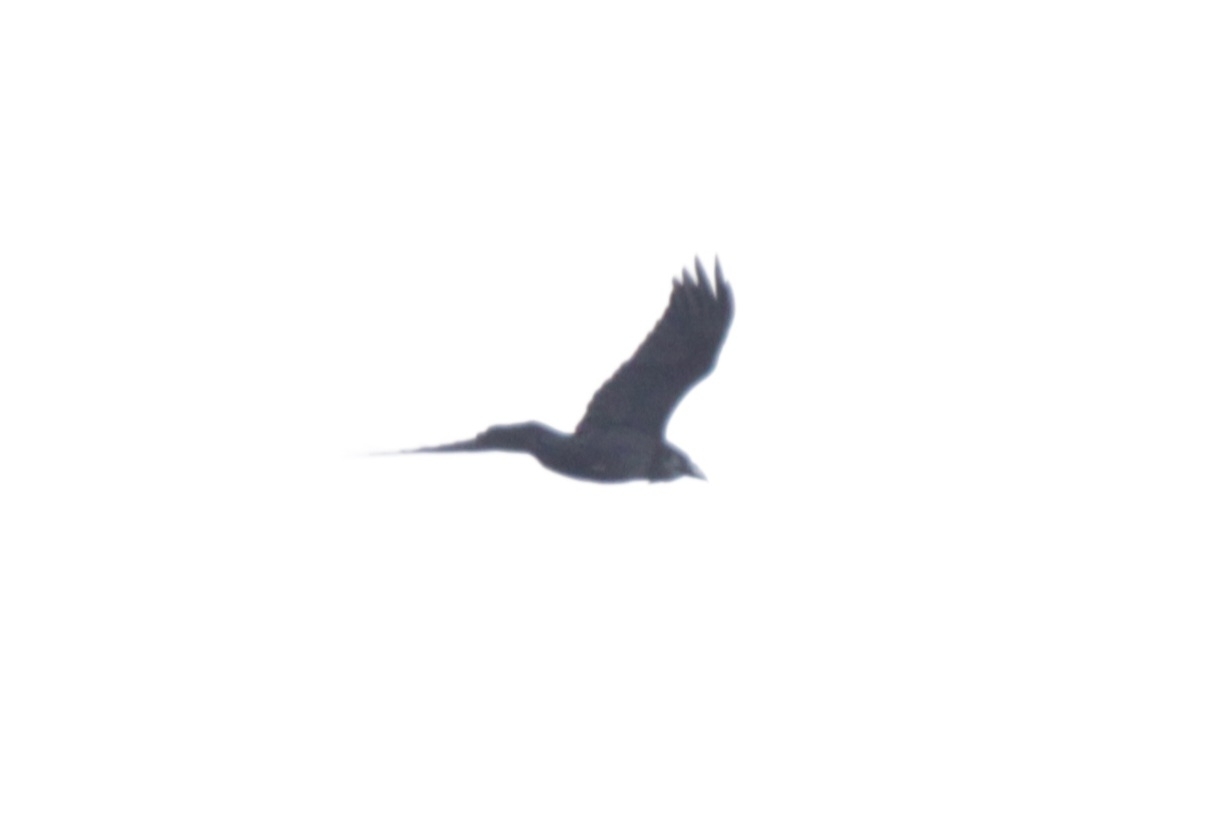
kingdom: Animalia
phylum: Chordata
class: Aves
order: Passeriformes
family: Corvidae
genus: Corvus
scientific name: Corvus corax
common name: Common raven
